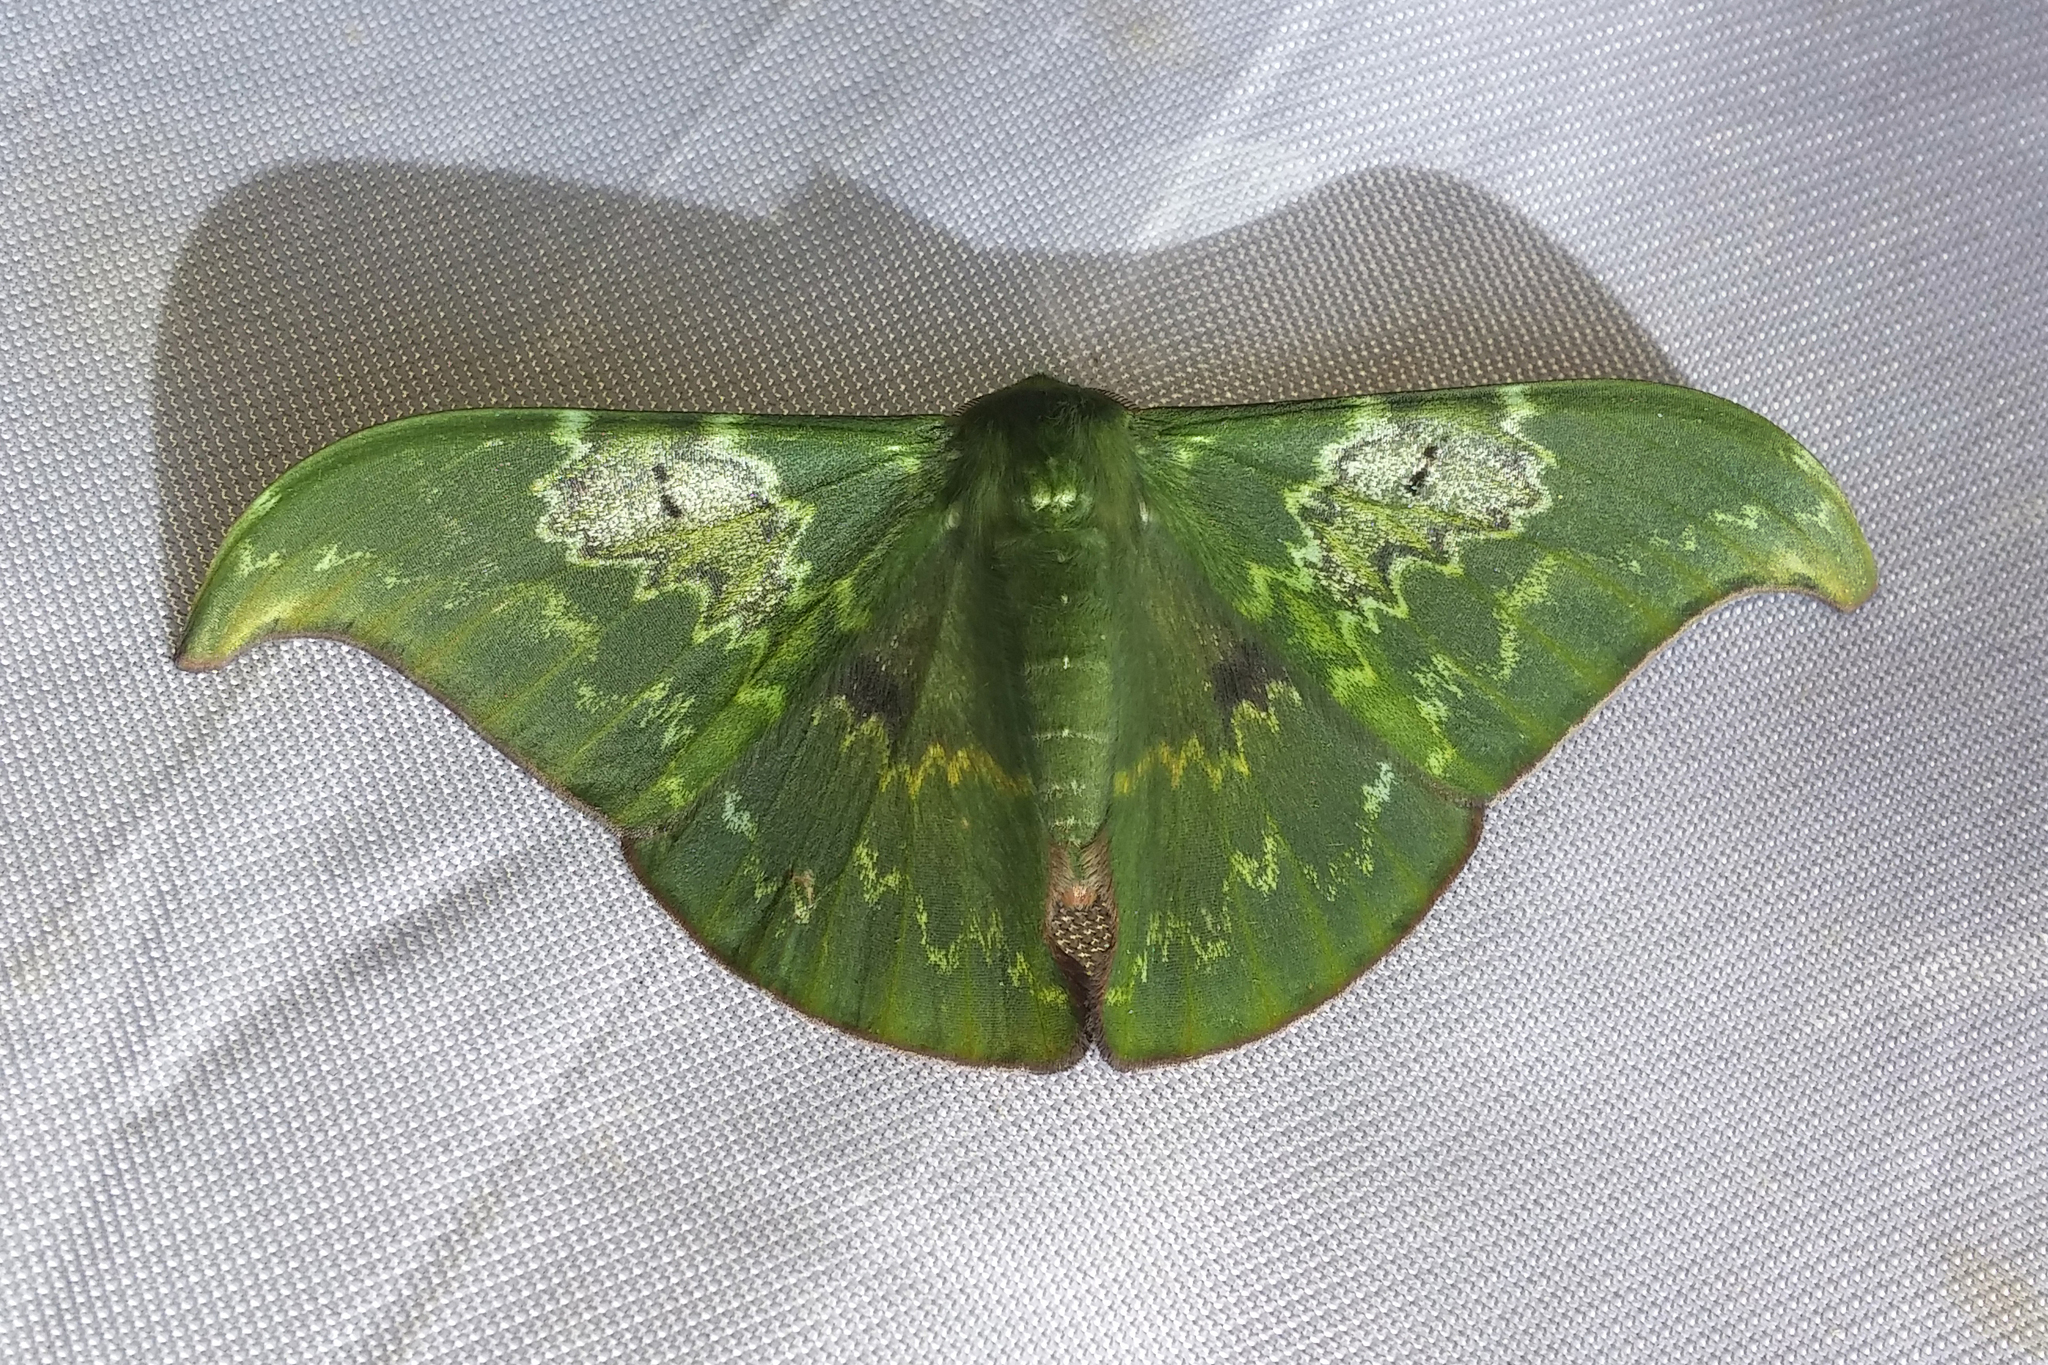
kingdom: Animalia
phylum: Arthropoda
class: Insecta
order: Lepidoptera
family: Geometridae
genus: Tanaorhinus
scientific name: Tanaorhinus unipuncta
